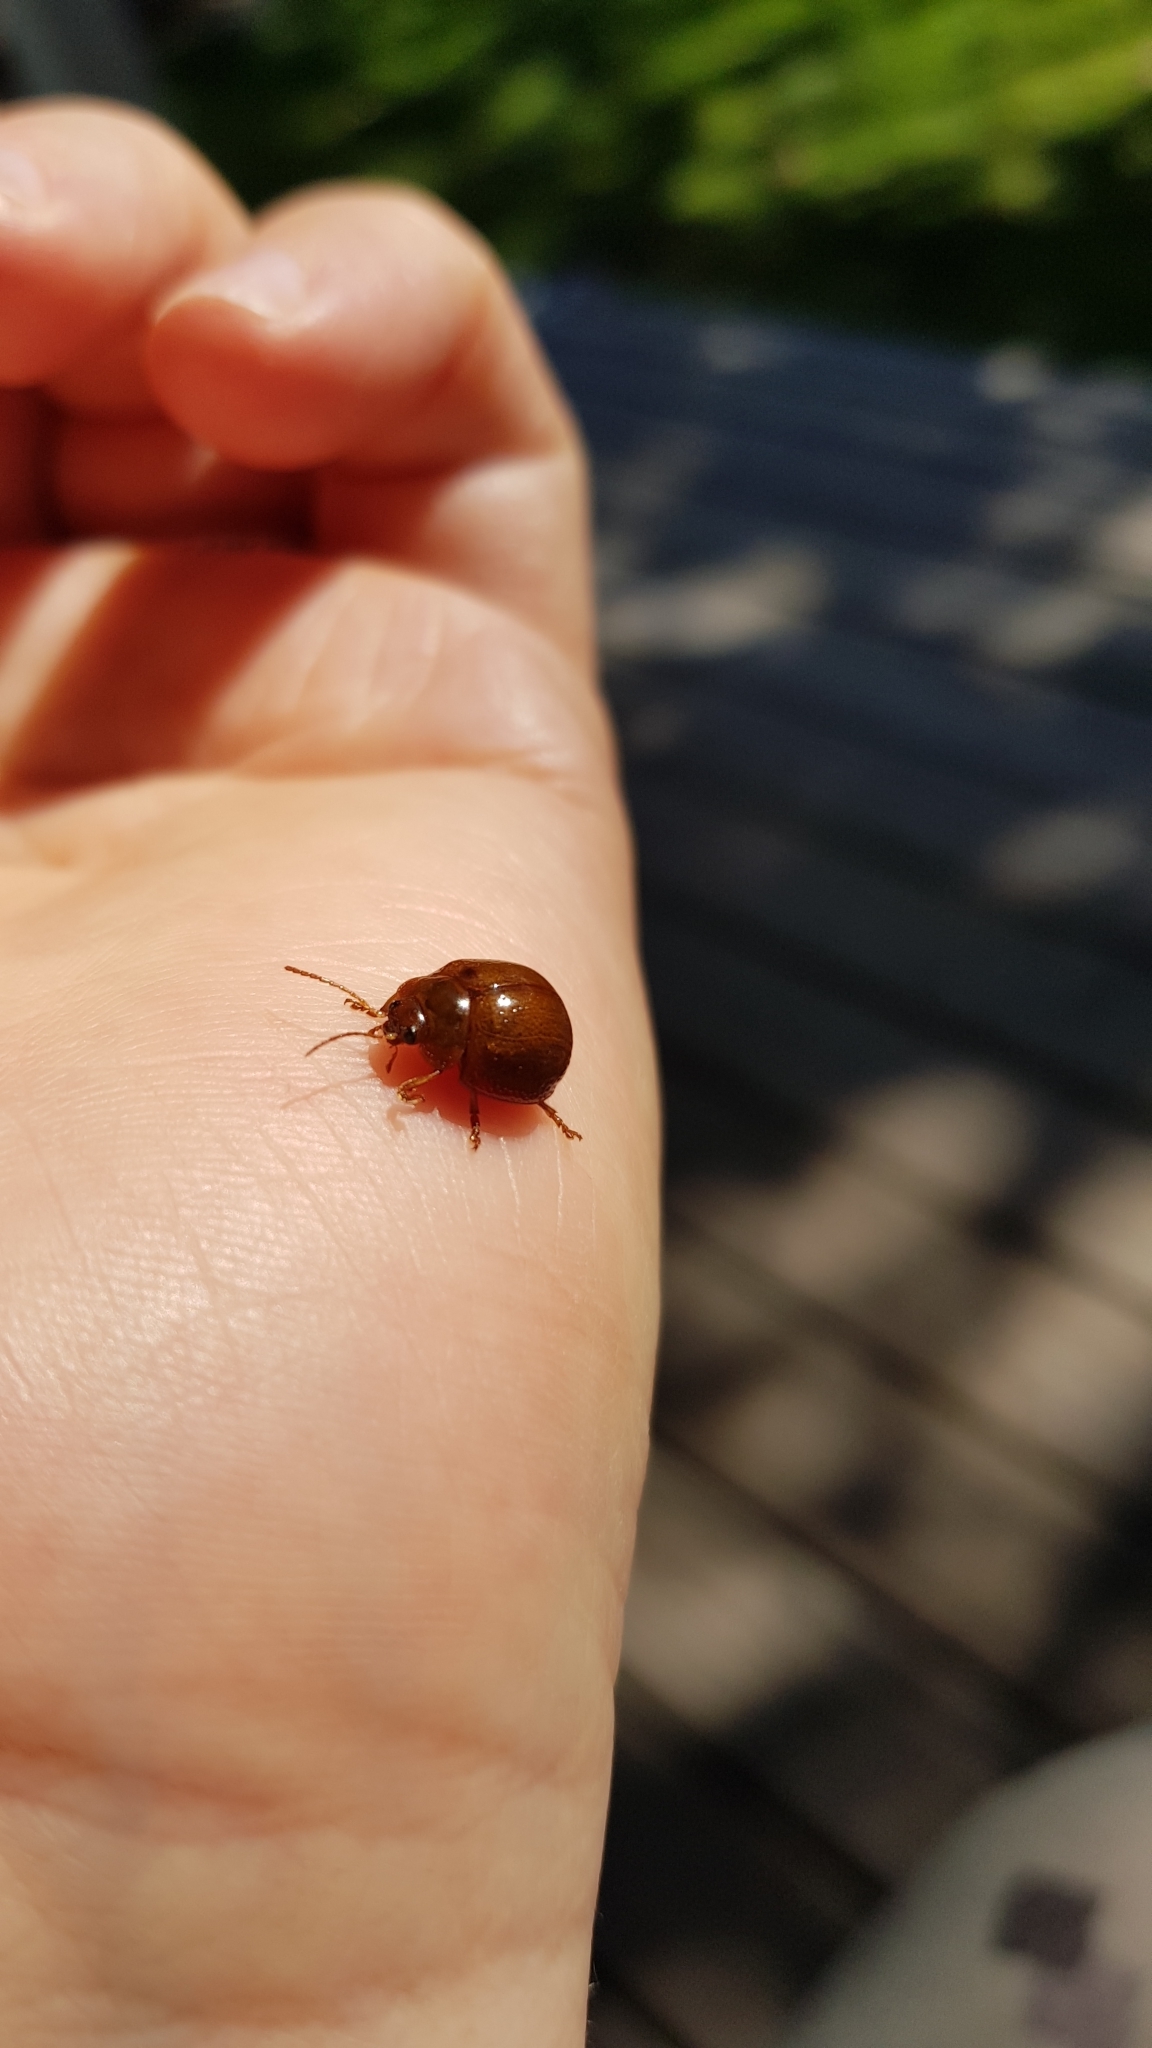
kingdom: Animalia
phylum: Arthropoda
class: Insecta
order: Coleoptera
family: Chrysomelidae
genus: Dicranosterna
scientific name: Dicranosterna
